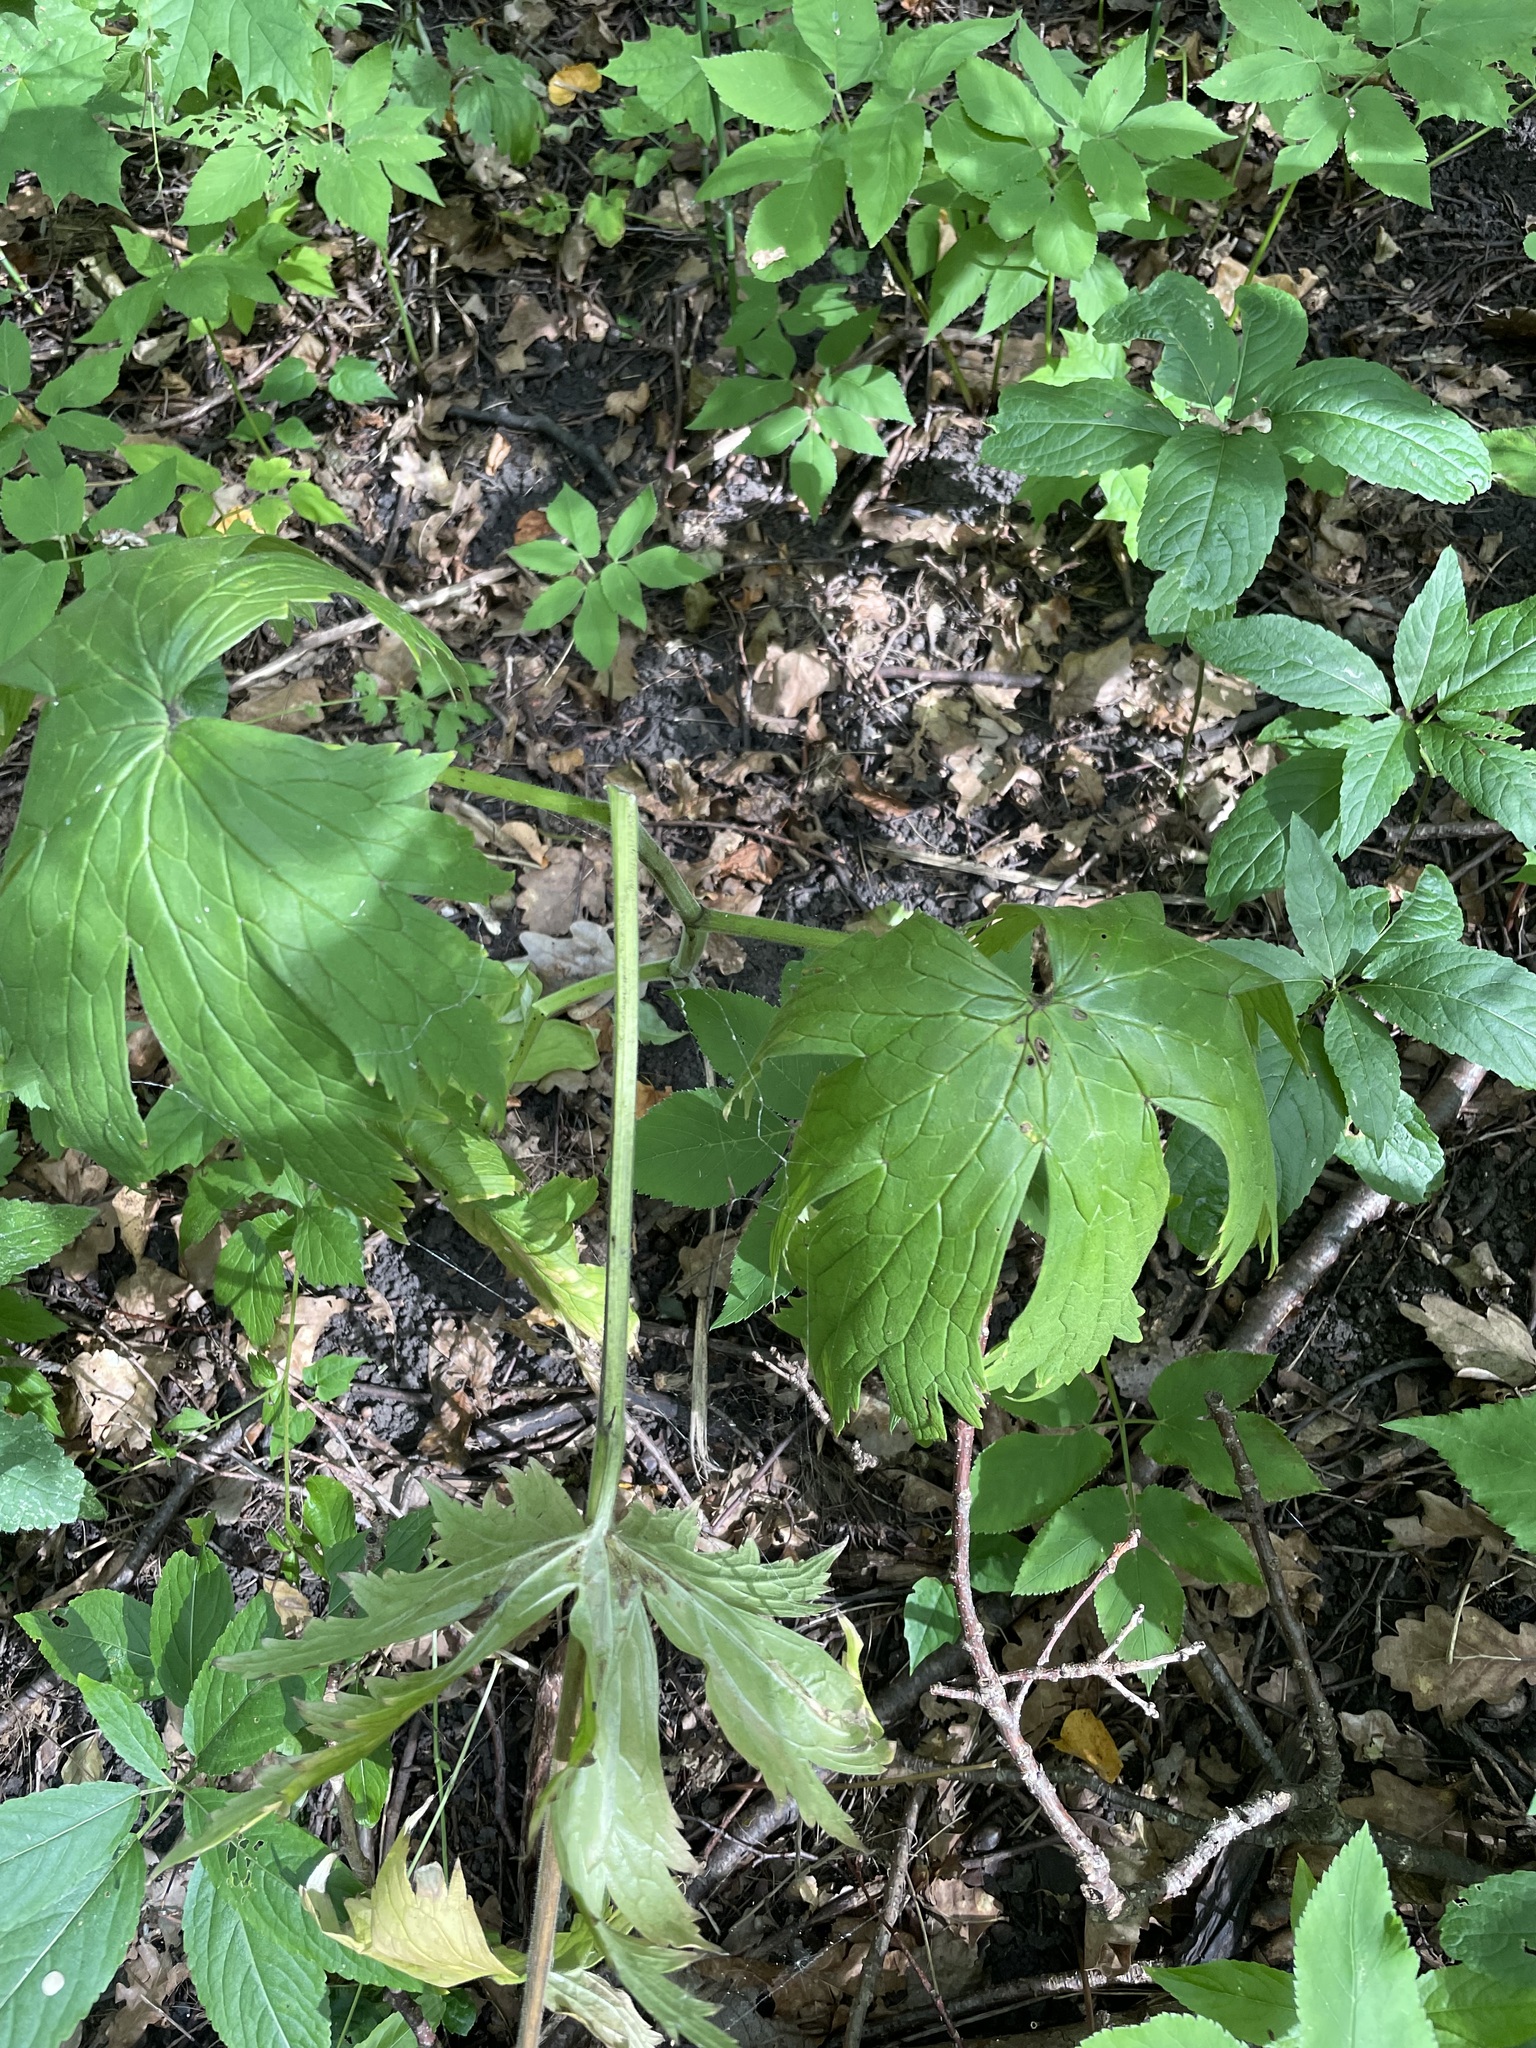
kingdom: Plantae
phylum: Tracheophyta
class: Magnoliopsida
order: Ranunculales
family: Ranunculaceae
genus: Aconitum
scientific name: Aconitum septentrionale
